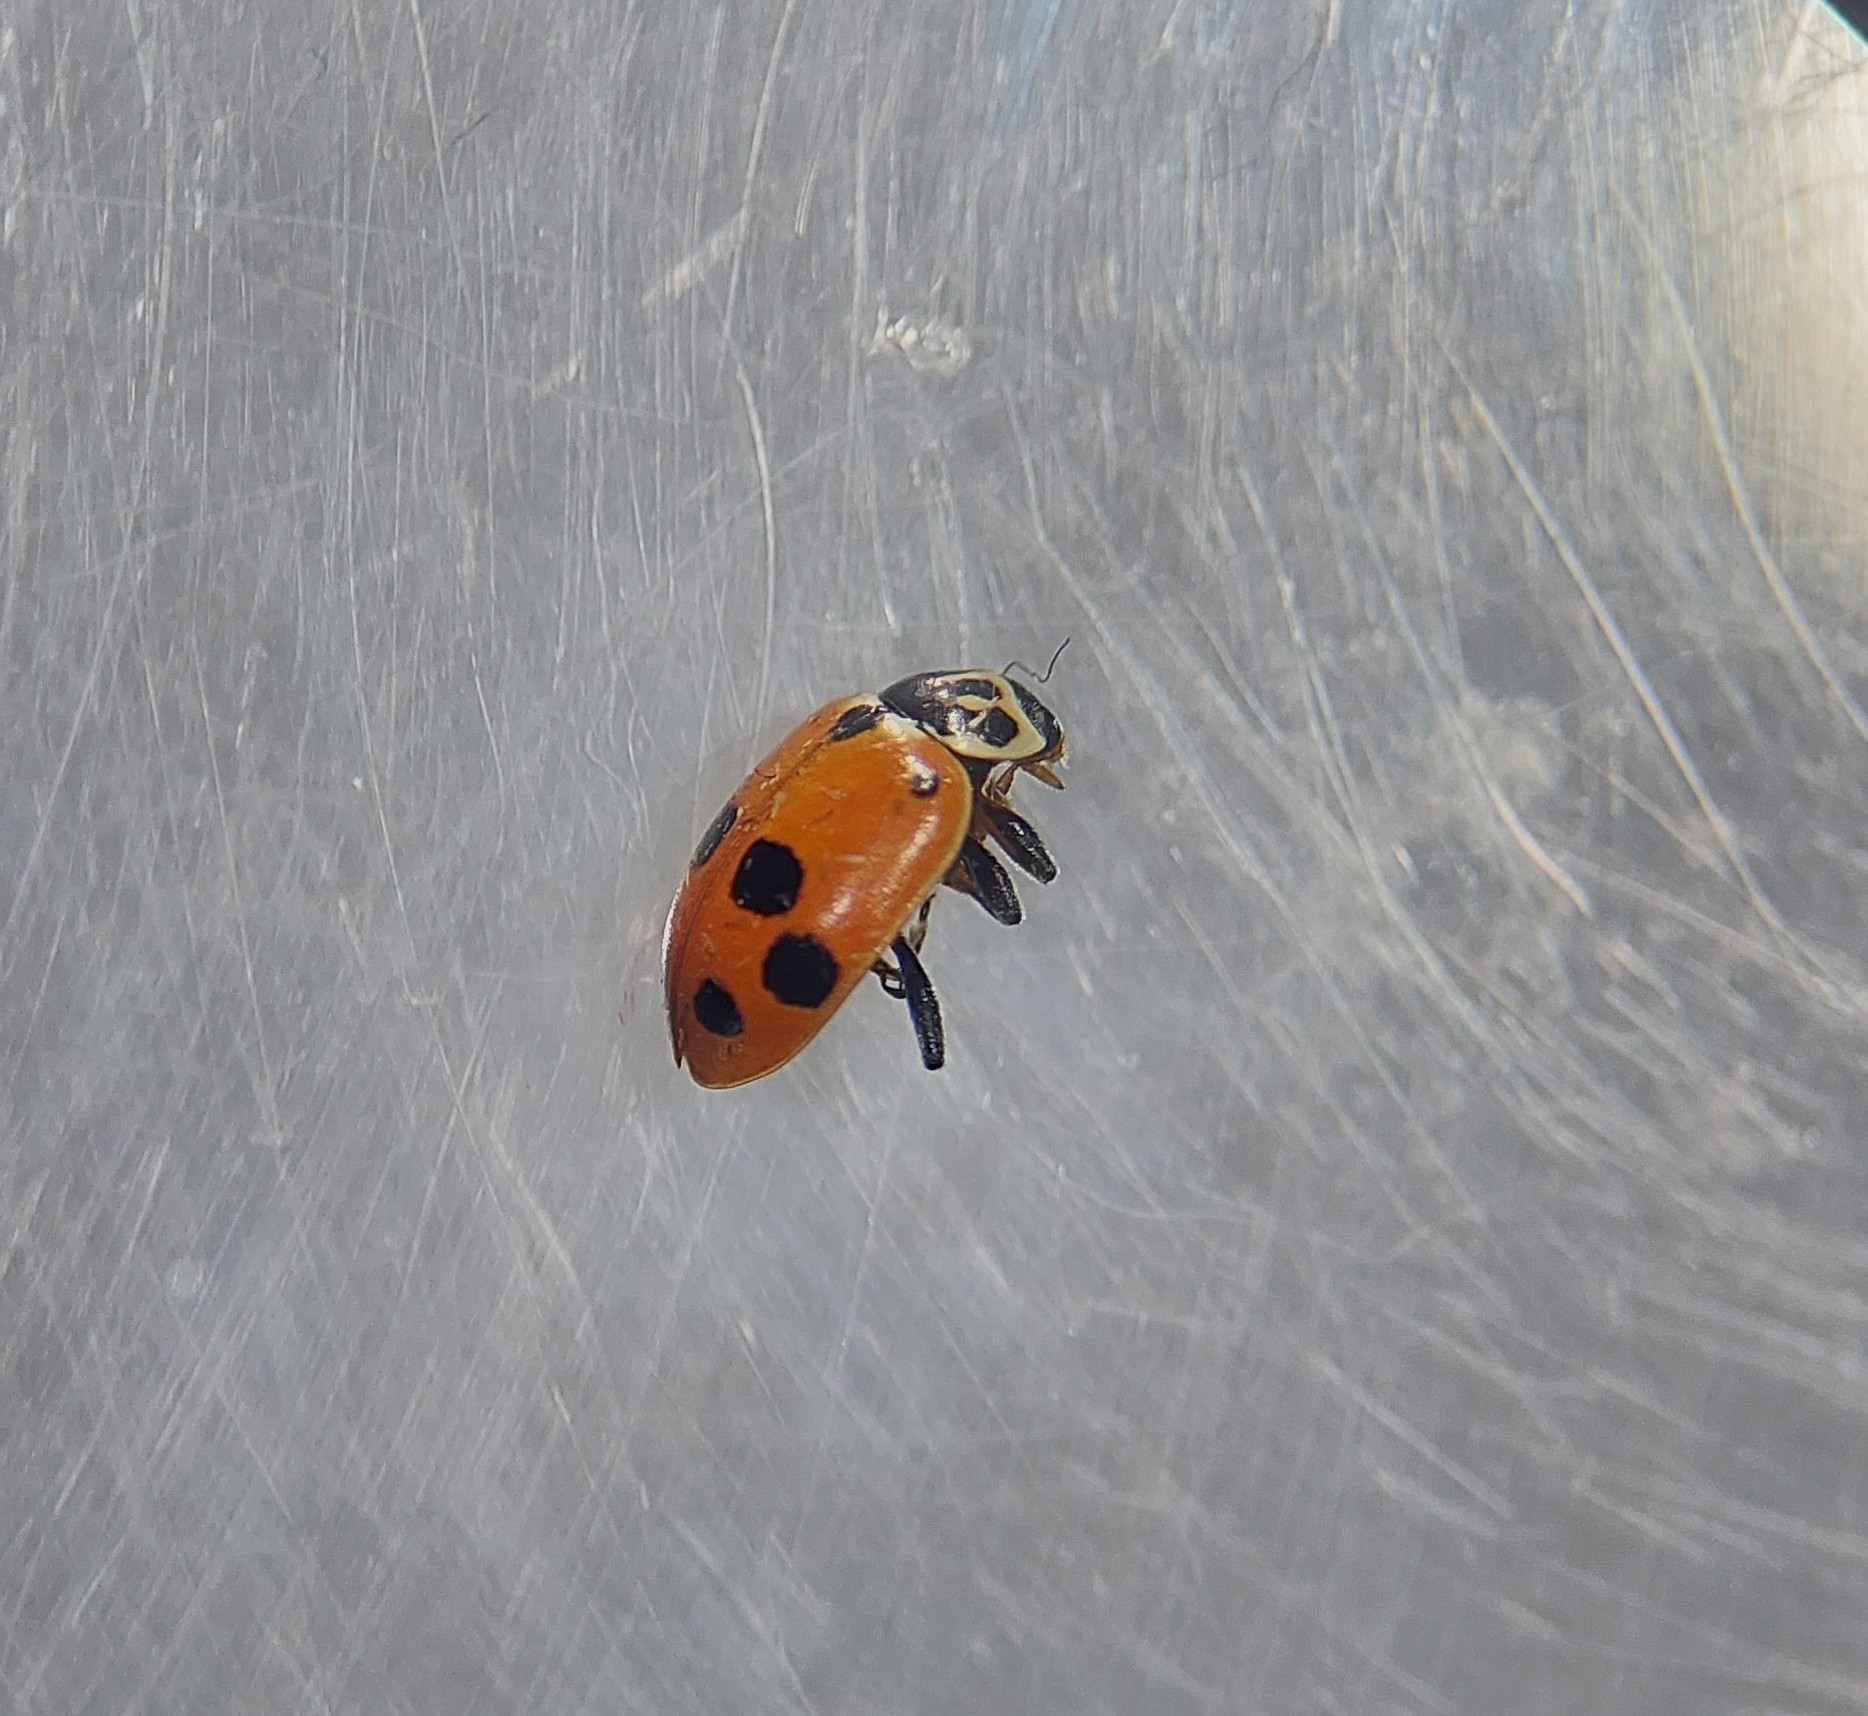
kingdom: Animalia
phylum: Arthropoda
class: Insecta
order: Coleoptera
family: Coccinellidae
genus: Hippodamia
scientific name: Hippodamia variegata
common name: Ladybird beetle
